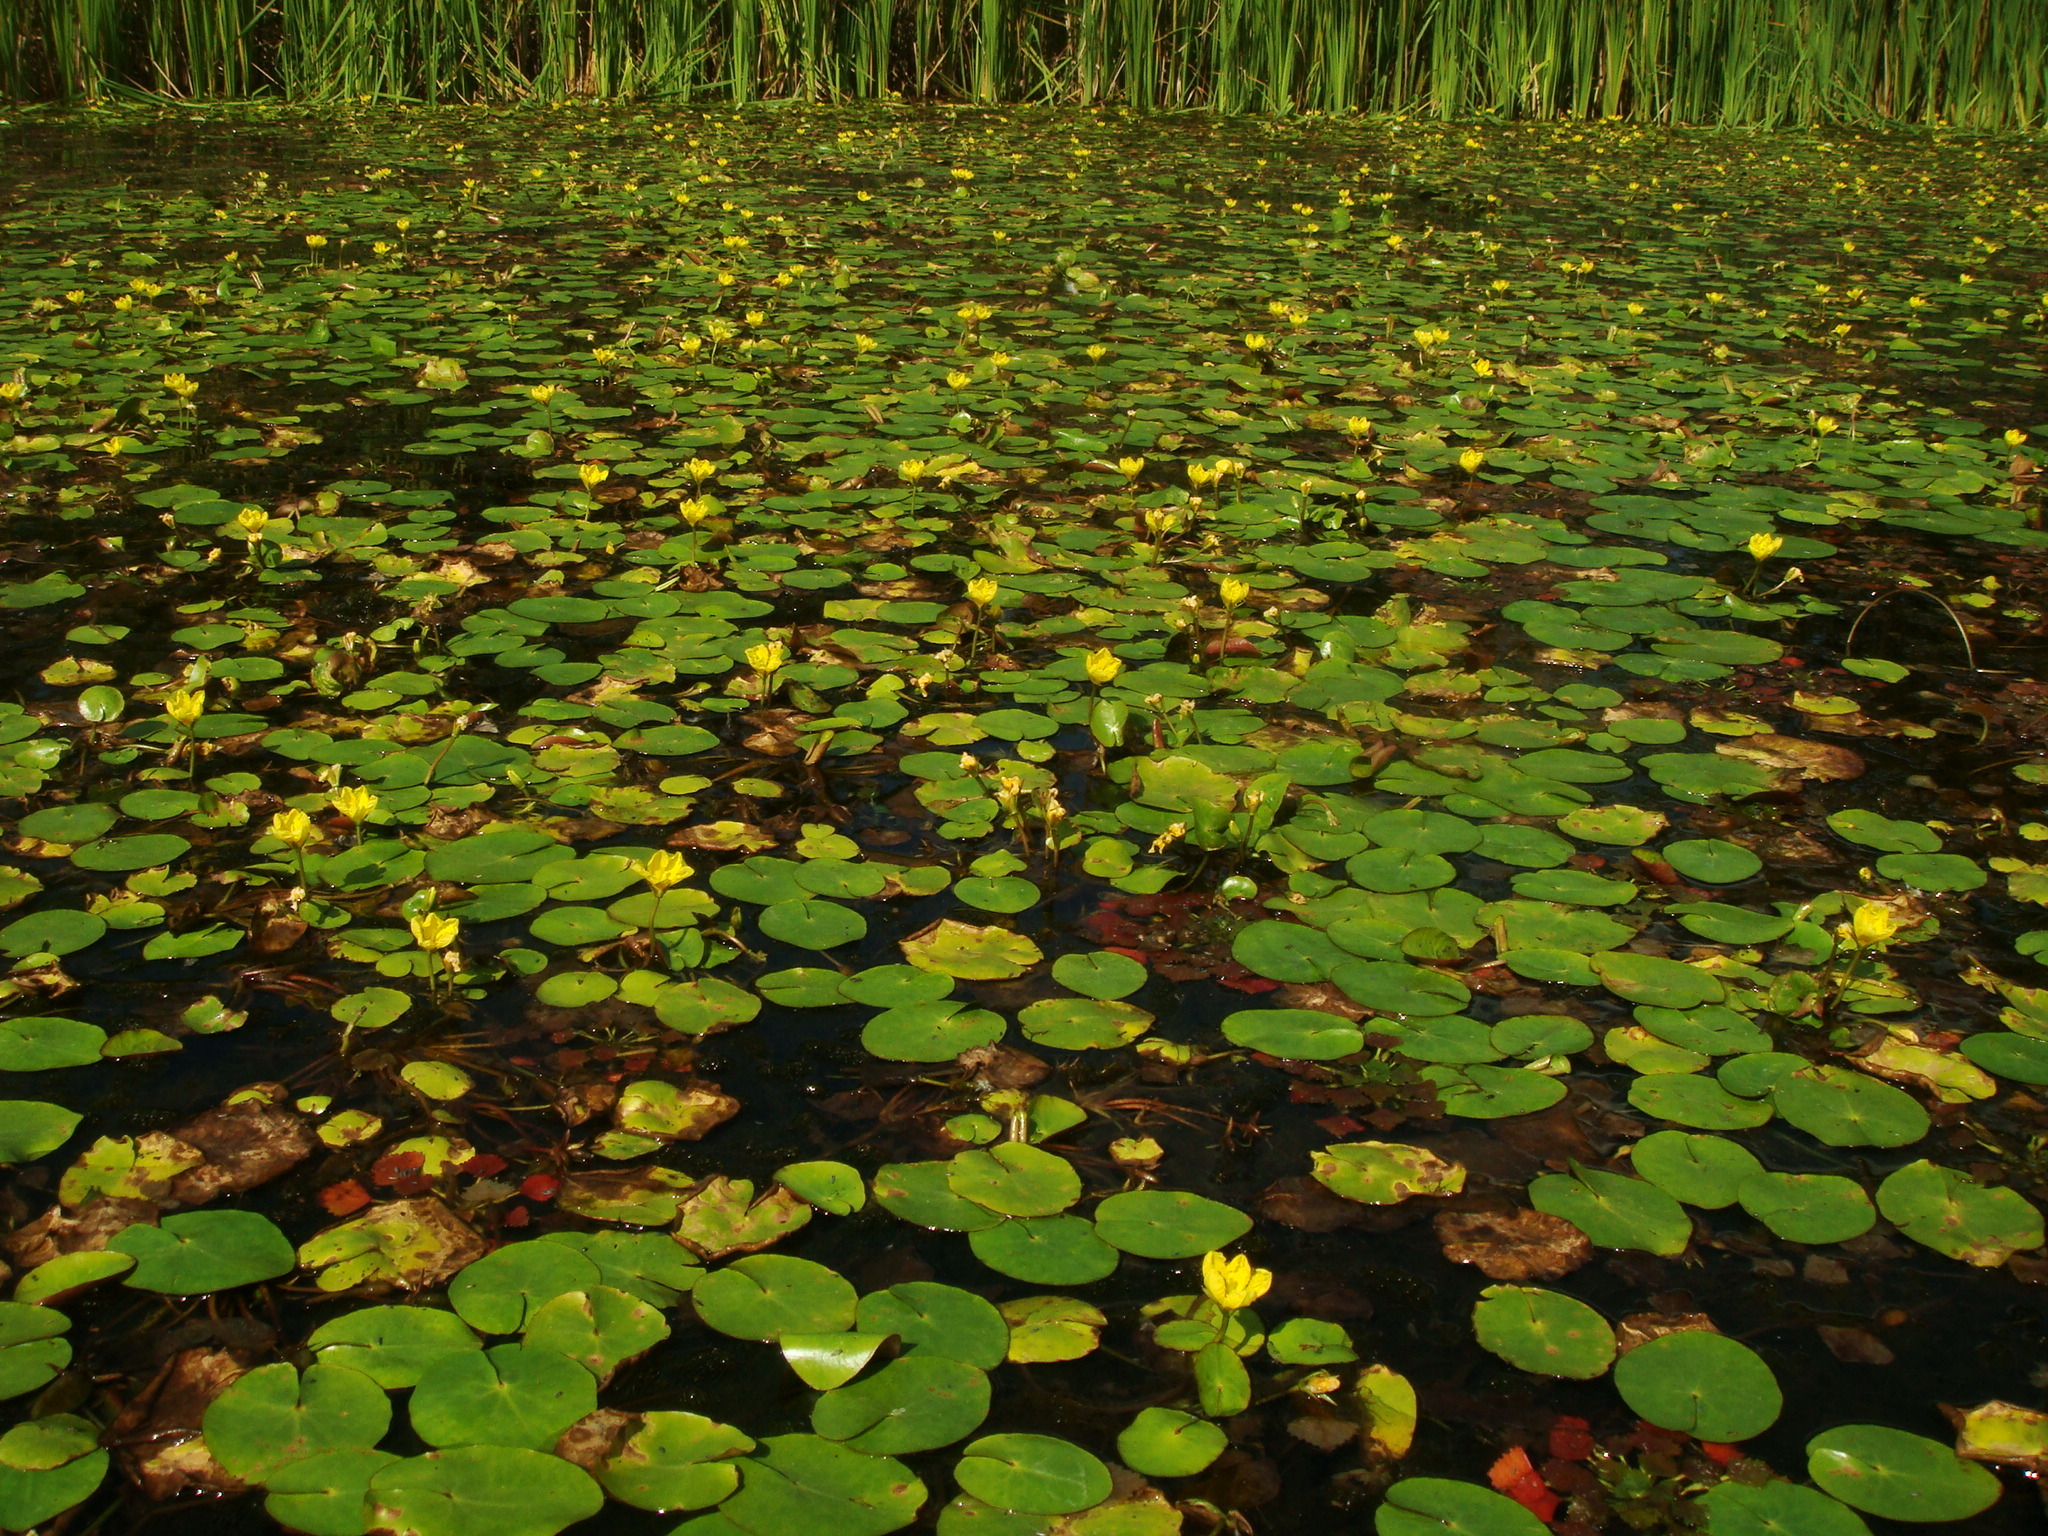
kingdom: Plantae
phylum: Tracheophyta
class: Magnoliopsida
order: Asterales
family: Menyanthaceae
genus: Nymphoides
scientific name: Nymphoides peltata
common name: Fringed water-lily
